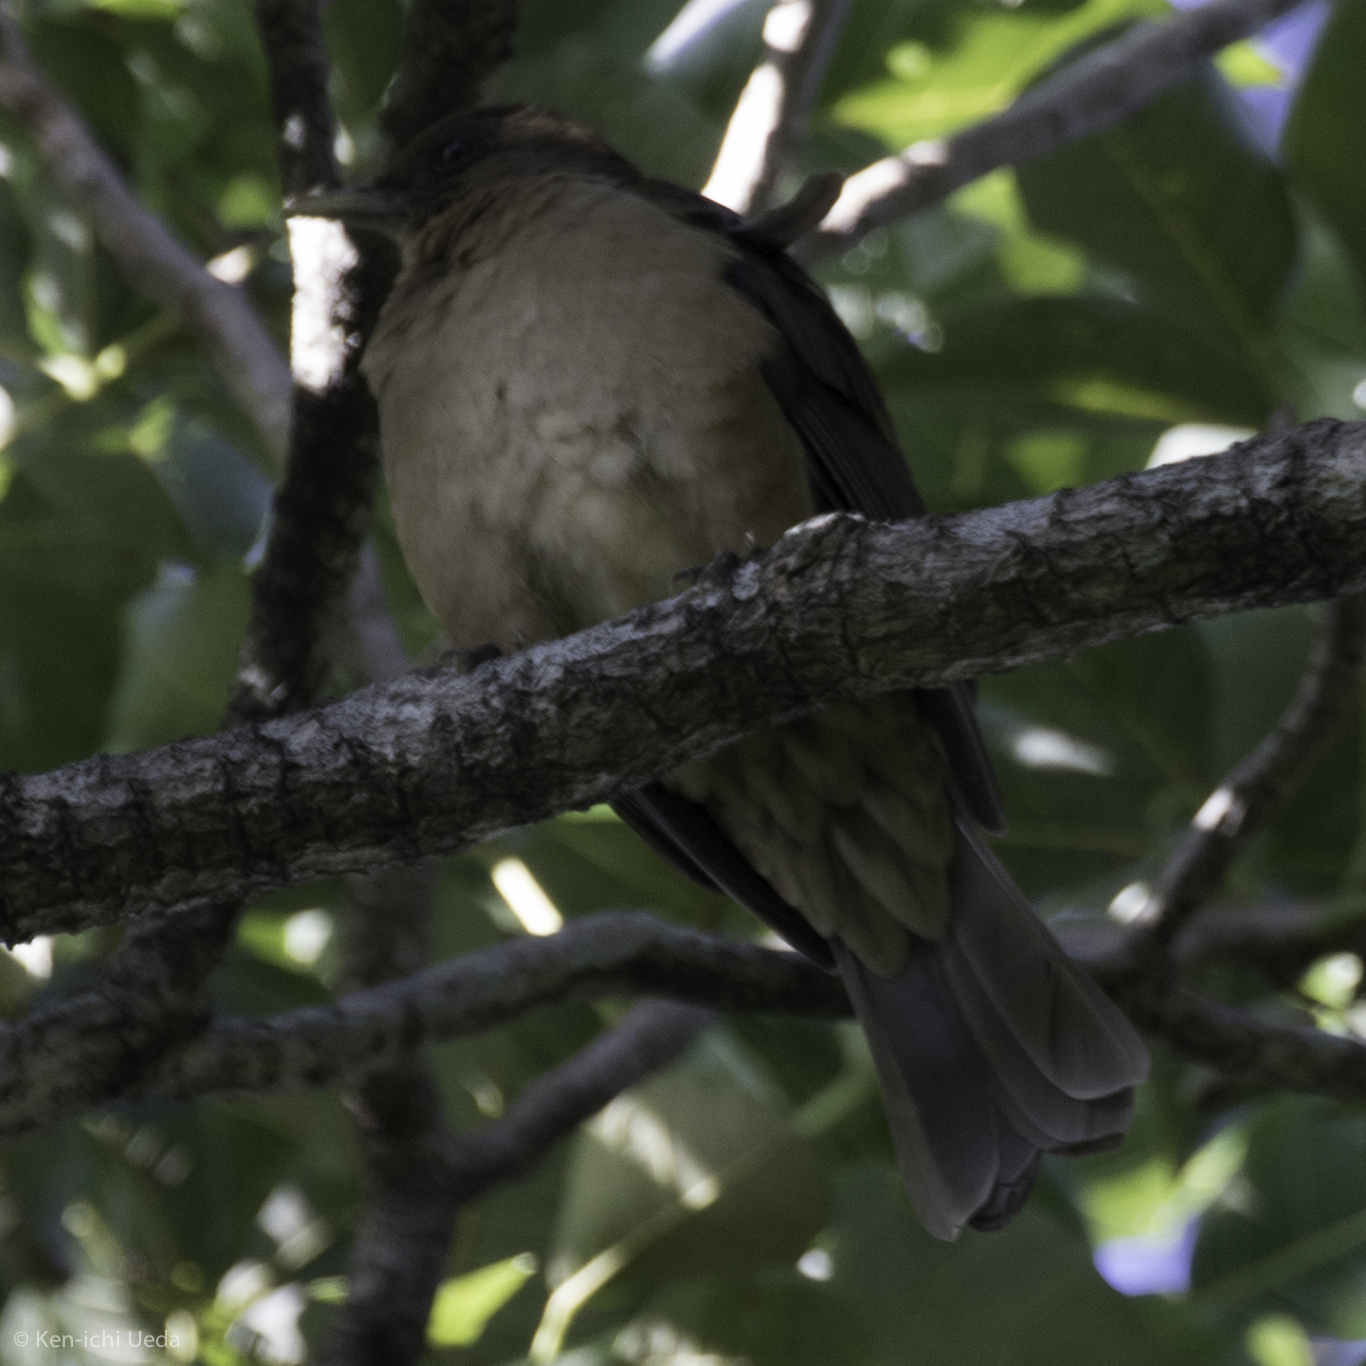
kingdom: Animalia
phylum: Chordata
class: Aves
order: Passeriformes
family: Turdidae
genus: Turdus
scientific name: Turdus grayi
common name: Clay-colored thrush
